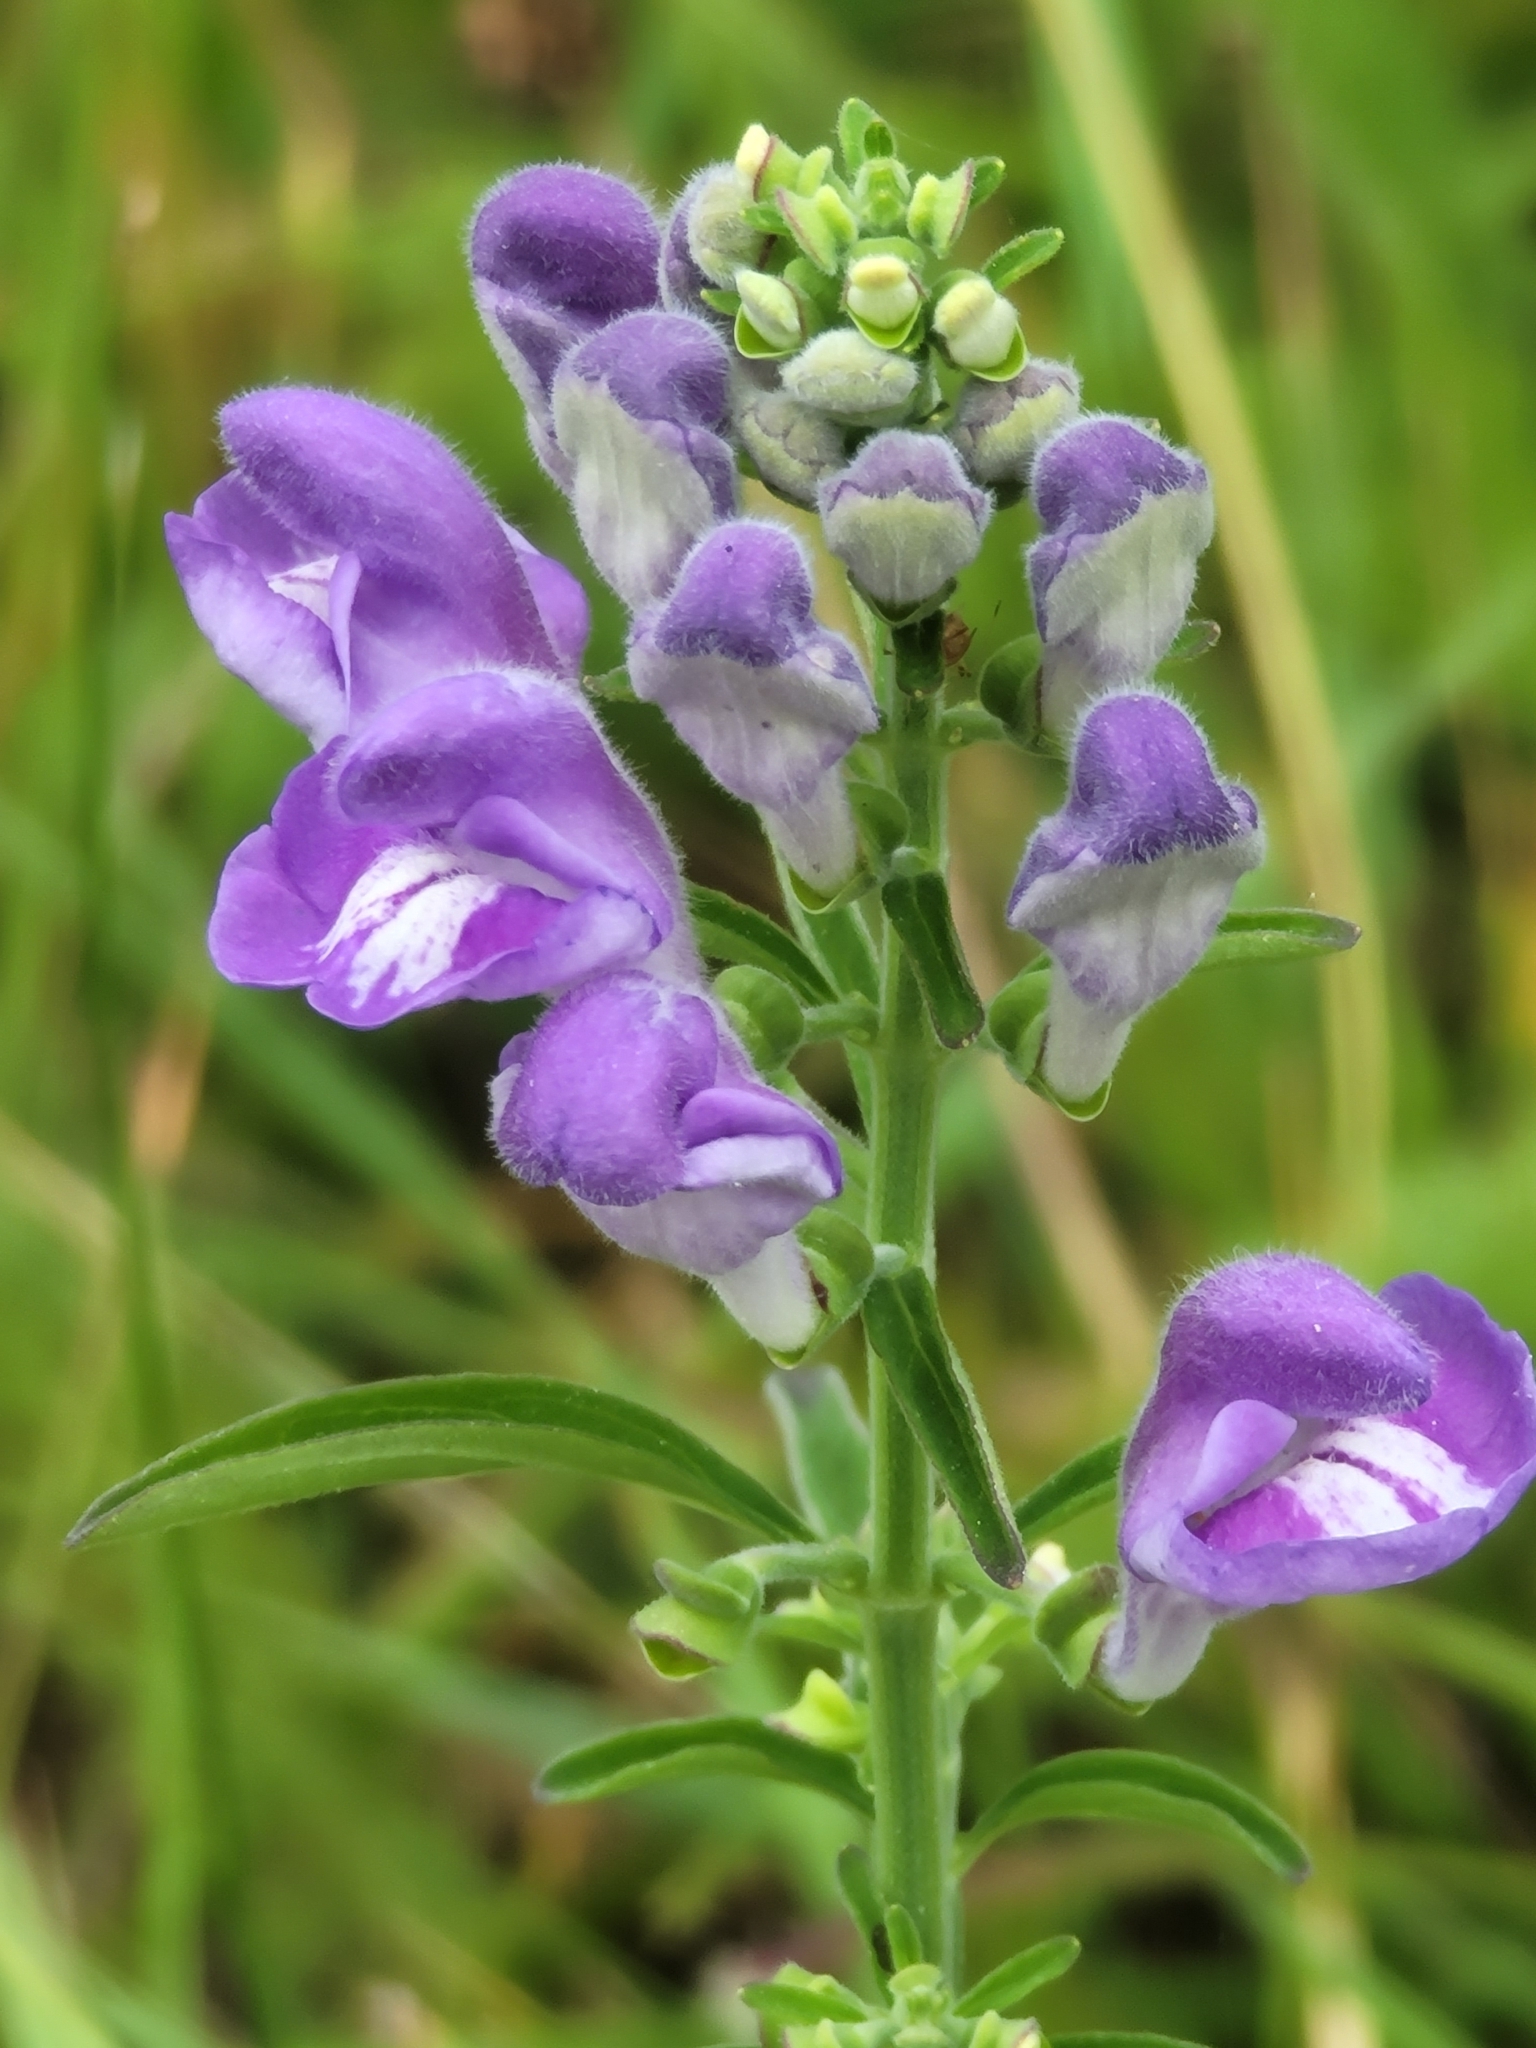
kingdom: Plantae
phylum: Tracheophyta
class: Magnoliopsida
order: Lamiales
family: Lamiaceae
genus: Scutellaria
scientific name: Scutellaria integrifolia
